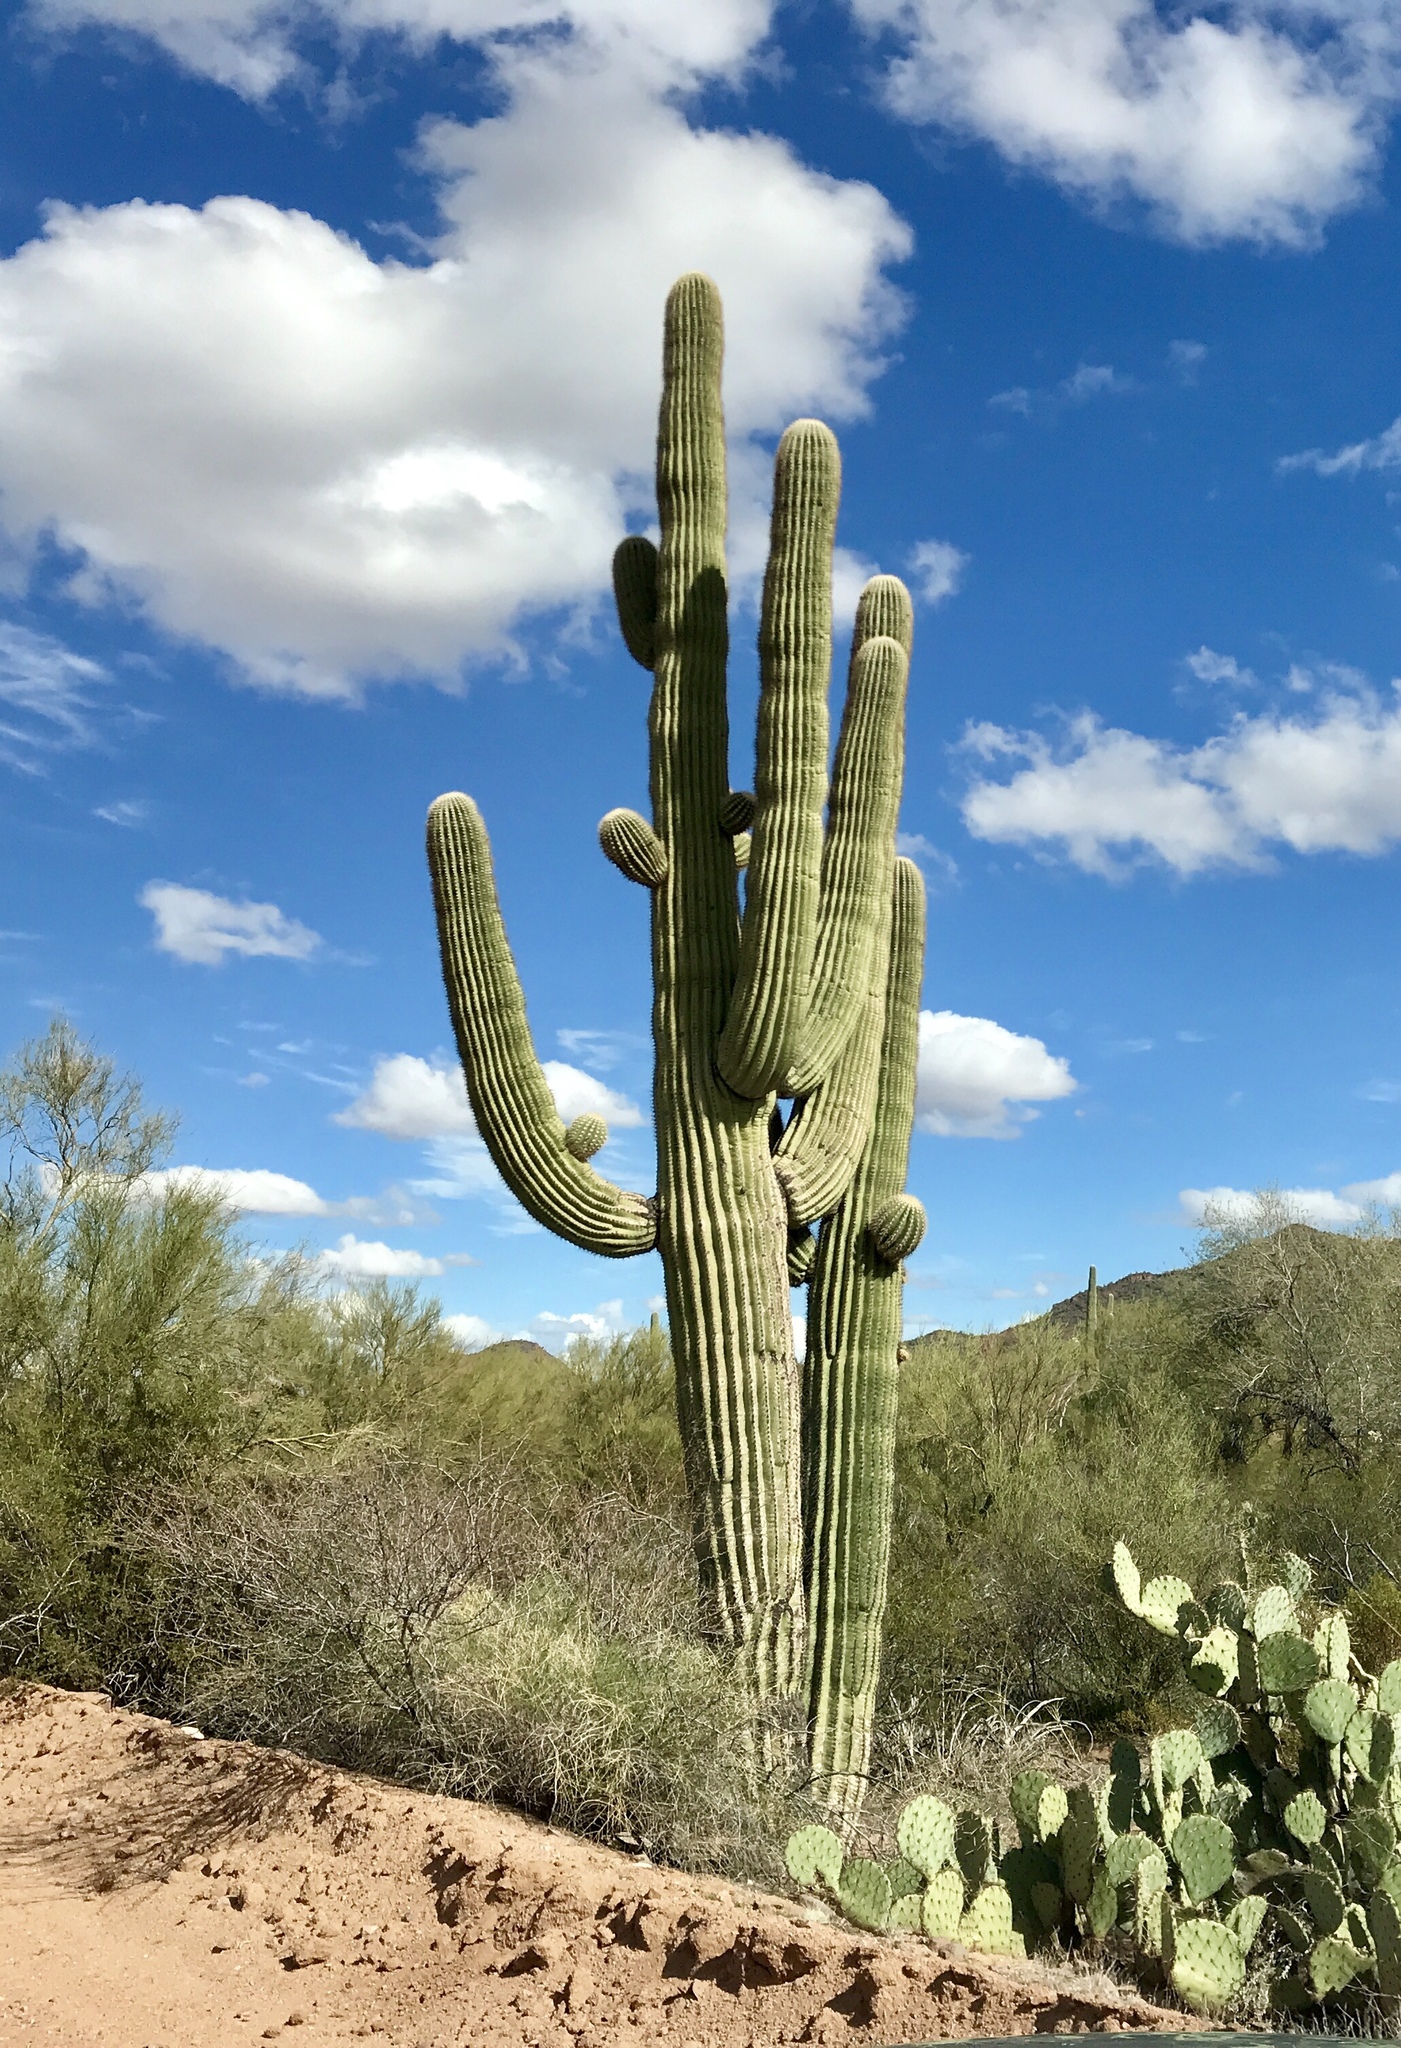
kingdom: Plantae
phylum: Tracheophyta
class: Magnoliopsida
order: Caryophyllales
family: Cactaceae
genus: Carnegiea
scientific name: Carnegiea gigantea
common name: Saguaro
